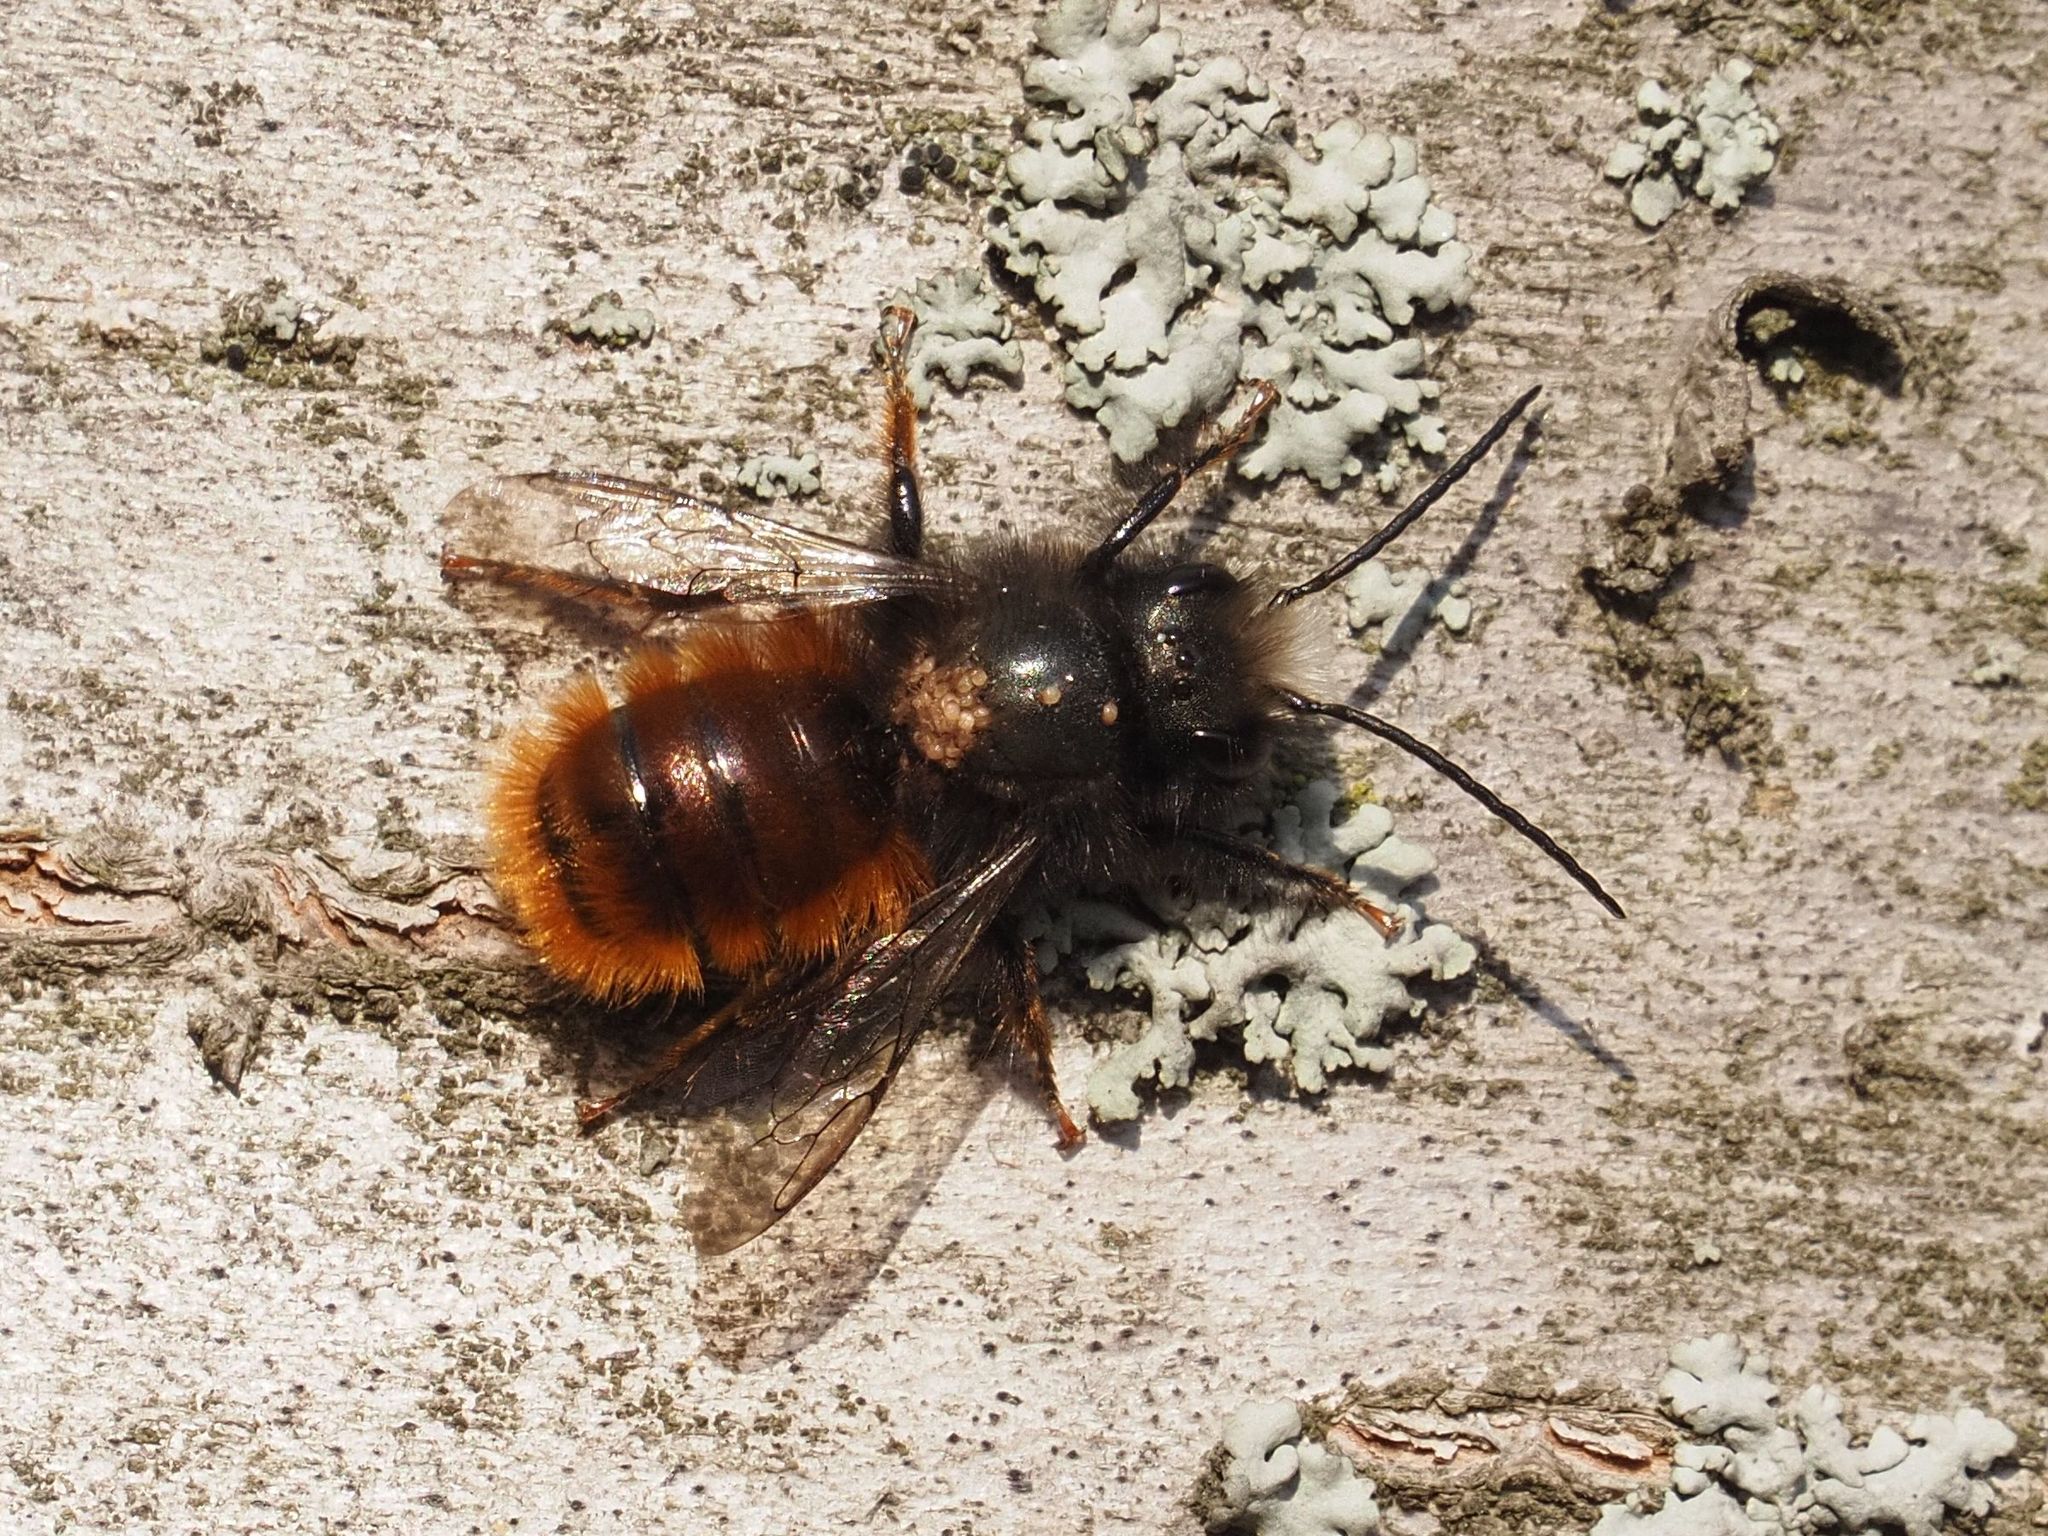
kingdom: Animalia
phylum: Arthropoda
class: Insecta
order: Hymenoptera
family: Megachilidae
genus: Osmia
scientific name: Osmia cornuta
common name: Mason bee
